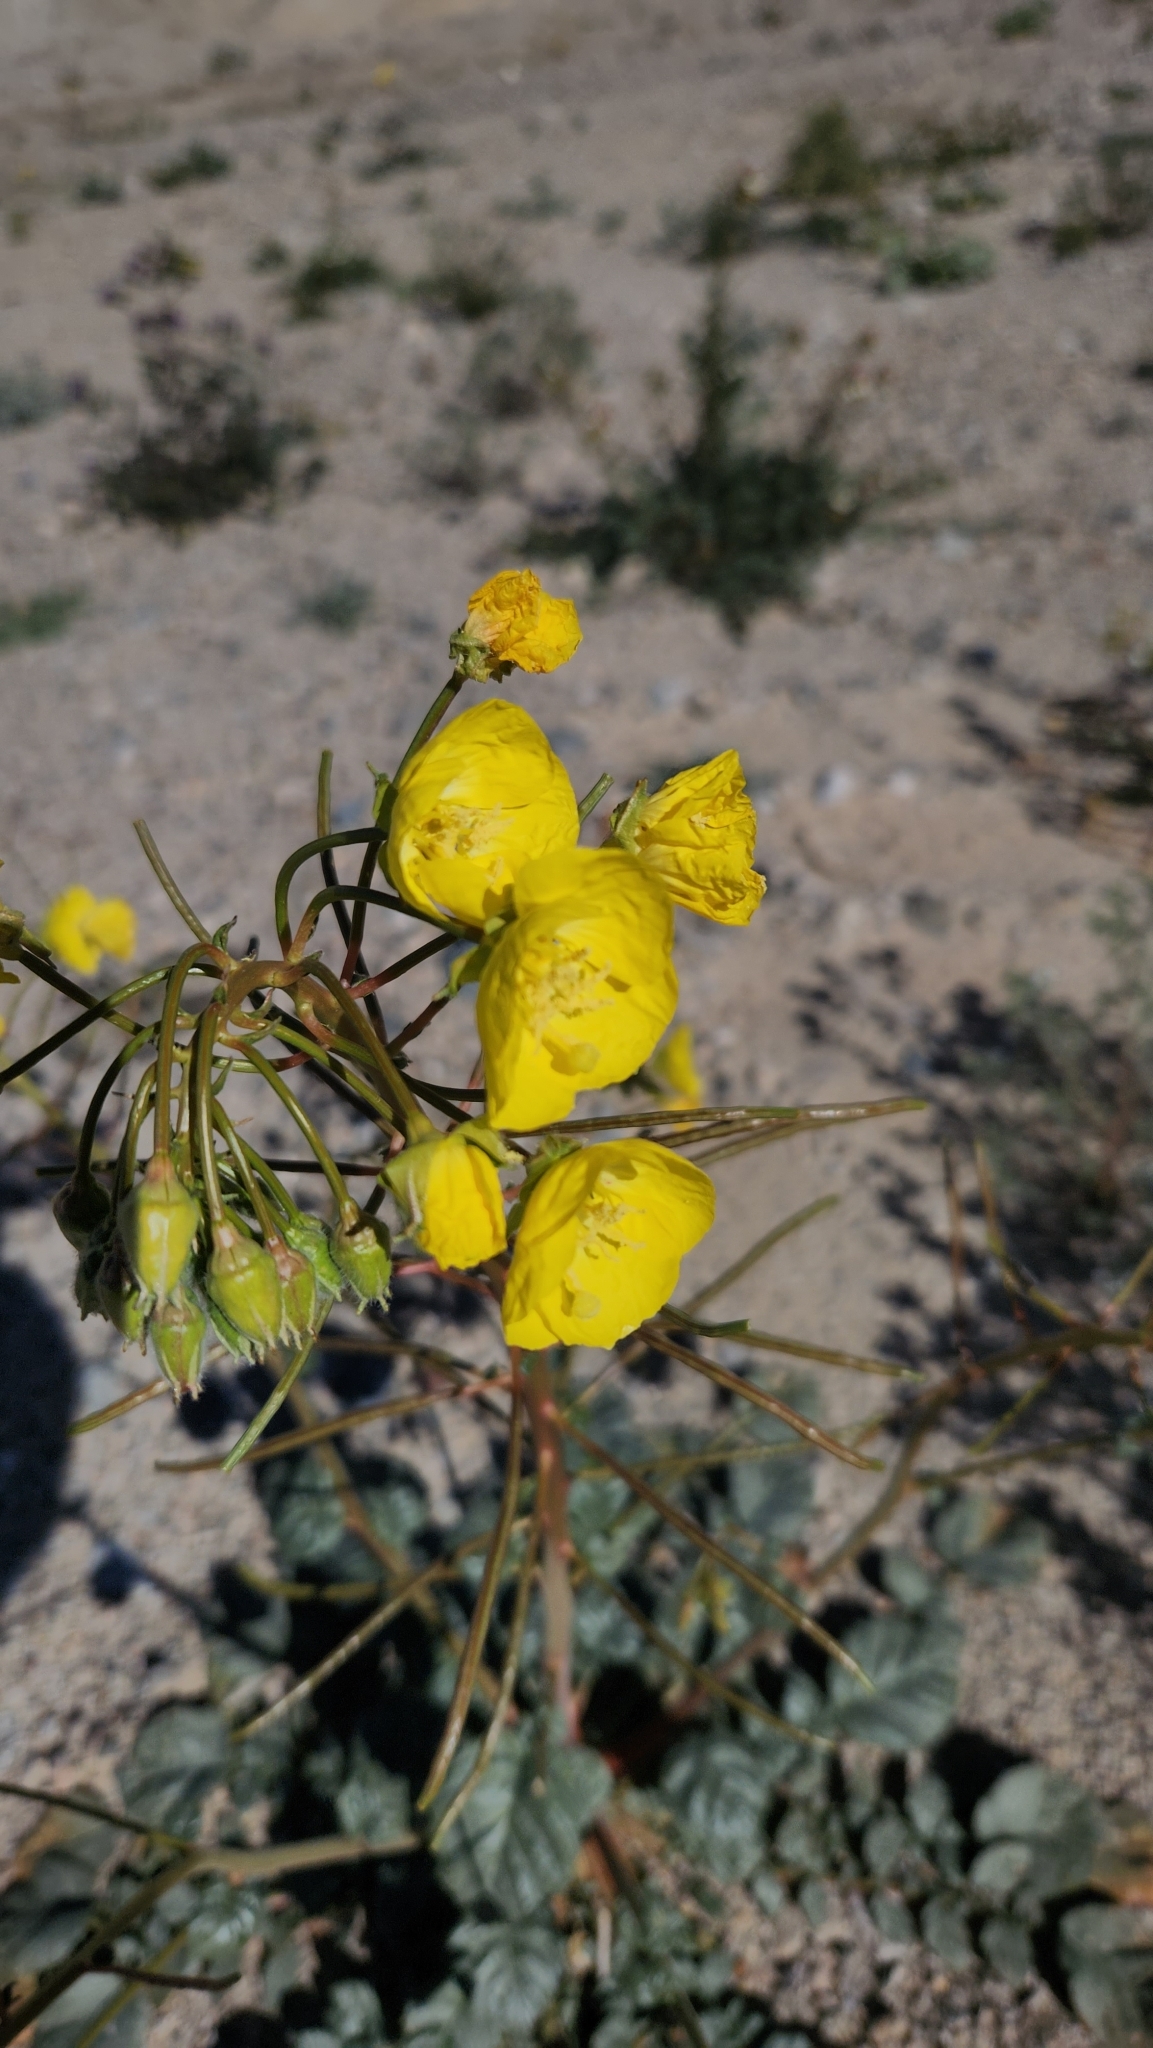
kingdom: Plantae
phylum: Tracheophyta
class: Magnoliopsida
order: Myrtales
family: Onagraceae
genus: Chylismia
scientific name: Chylismia brevipes
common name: Yellow cups
